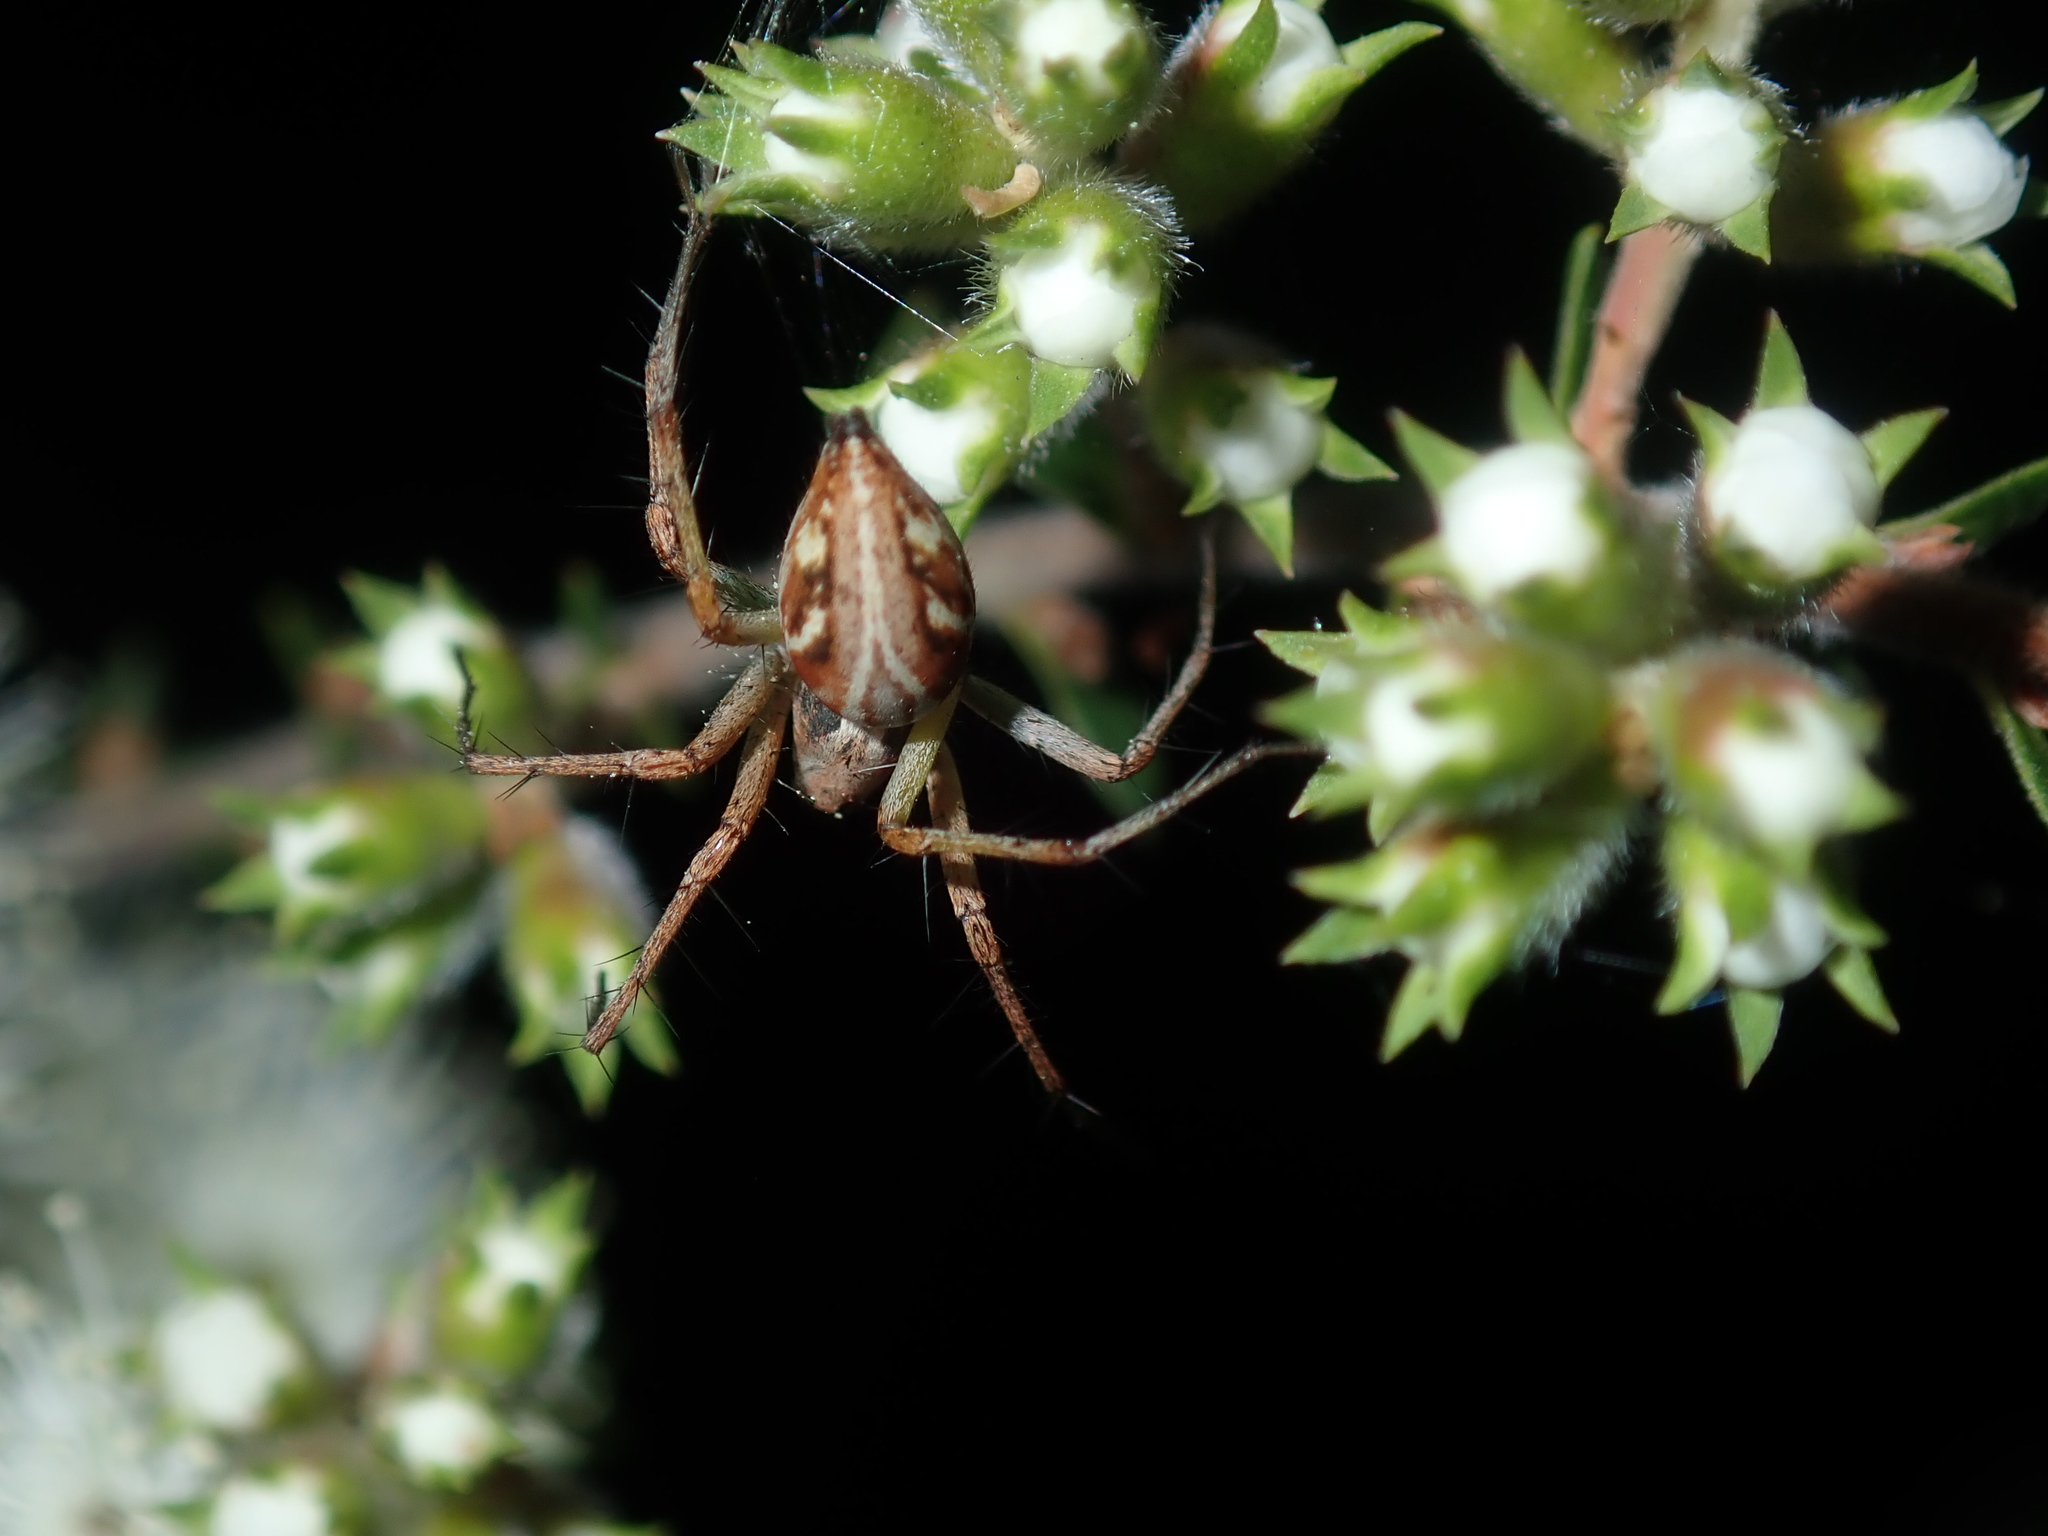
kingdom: Animalia
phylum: Arthropoda
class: Arachnida
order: Araneae
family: Oxyopidae
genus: Oxyopes
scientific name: Oxyopes amoenus
